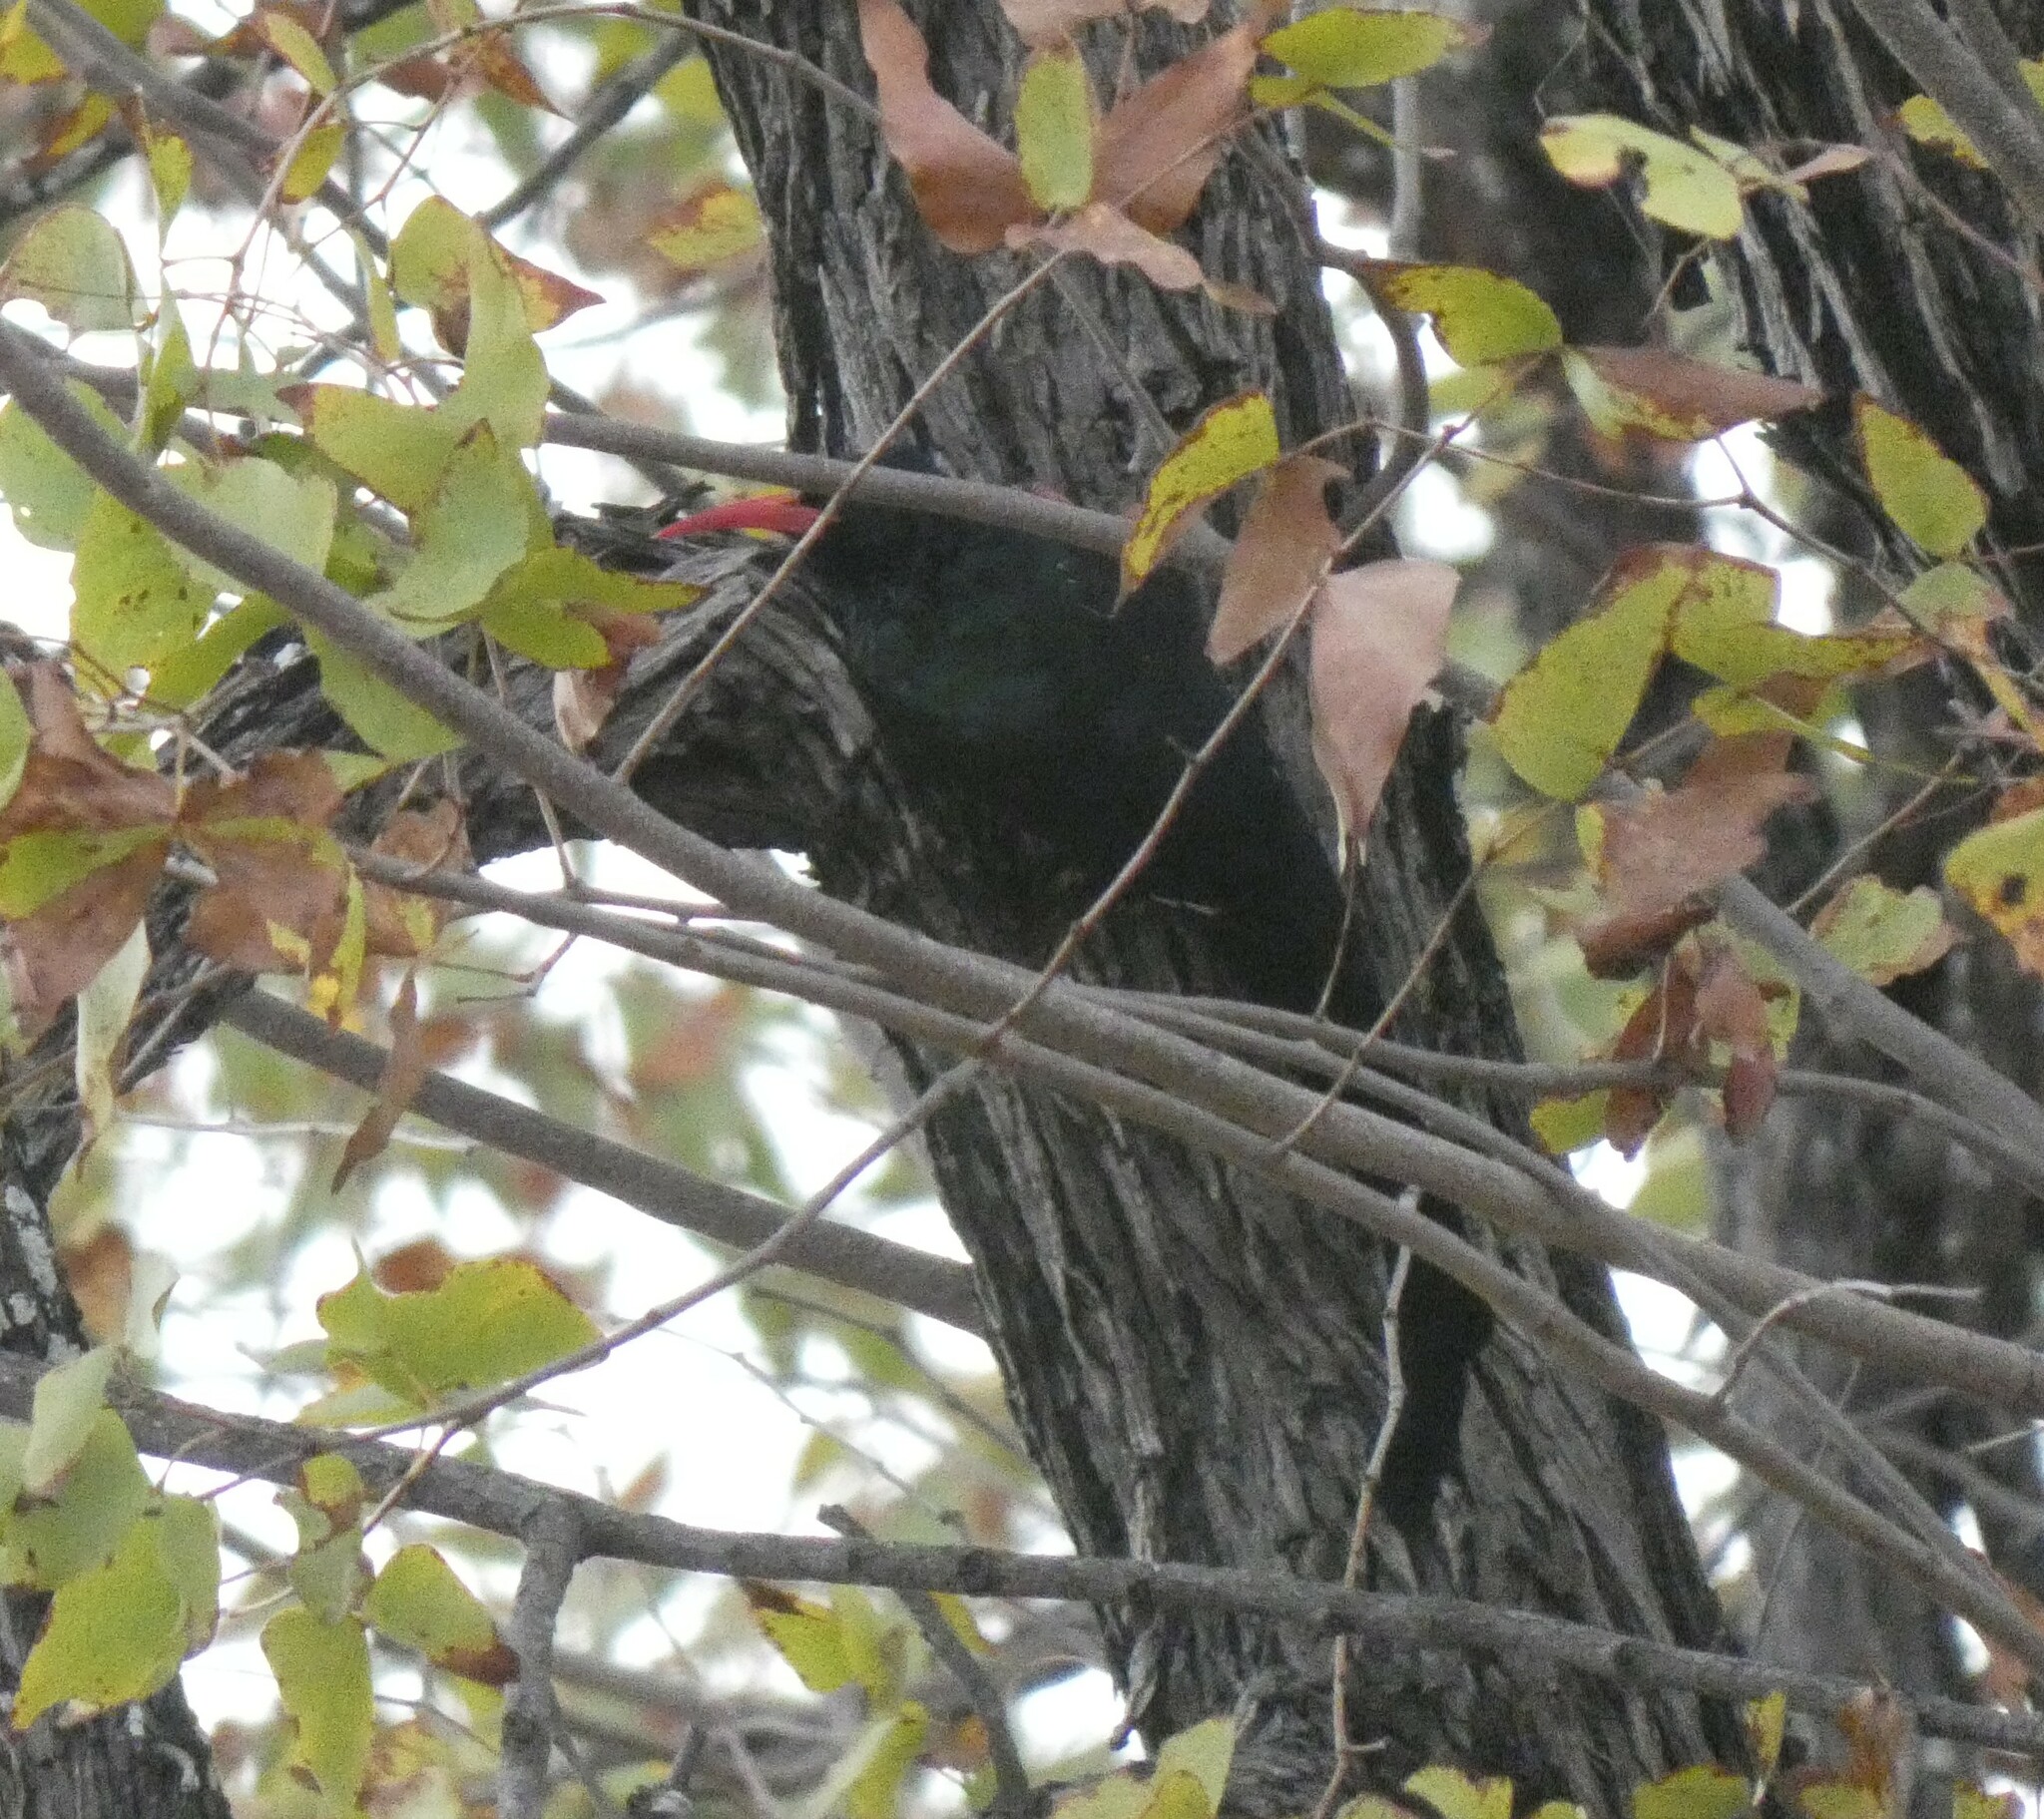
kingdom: Animalia
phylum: Chordata
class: Aves
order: Bucerotiformes
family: Phoeniculidae
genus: Phoeniculus
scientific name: Phoeniculus purpureus
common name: Green woodhoopoe
